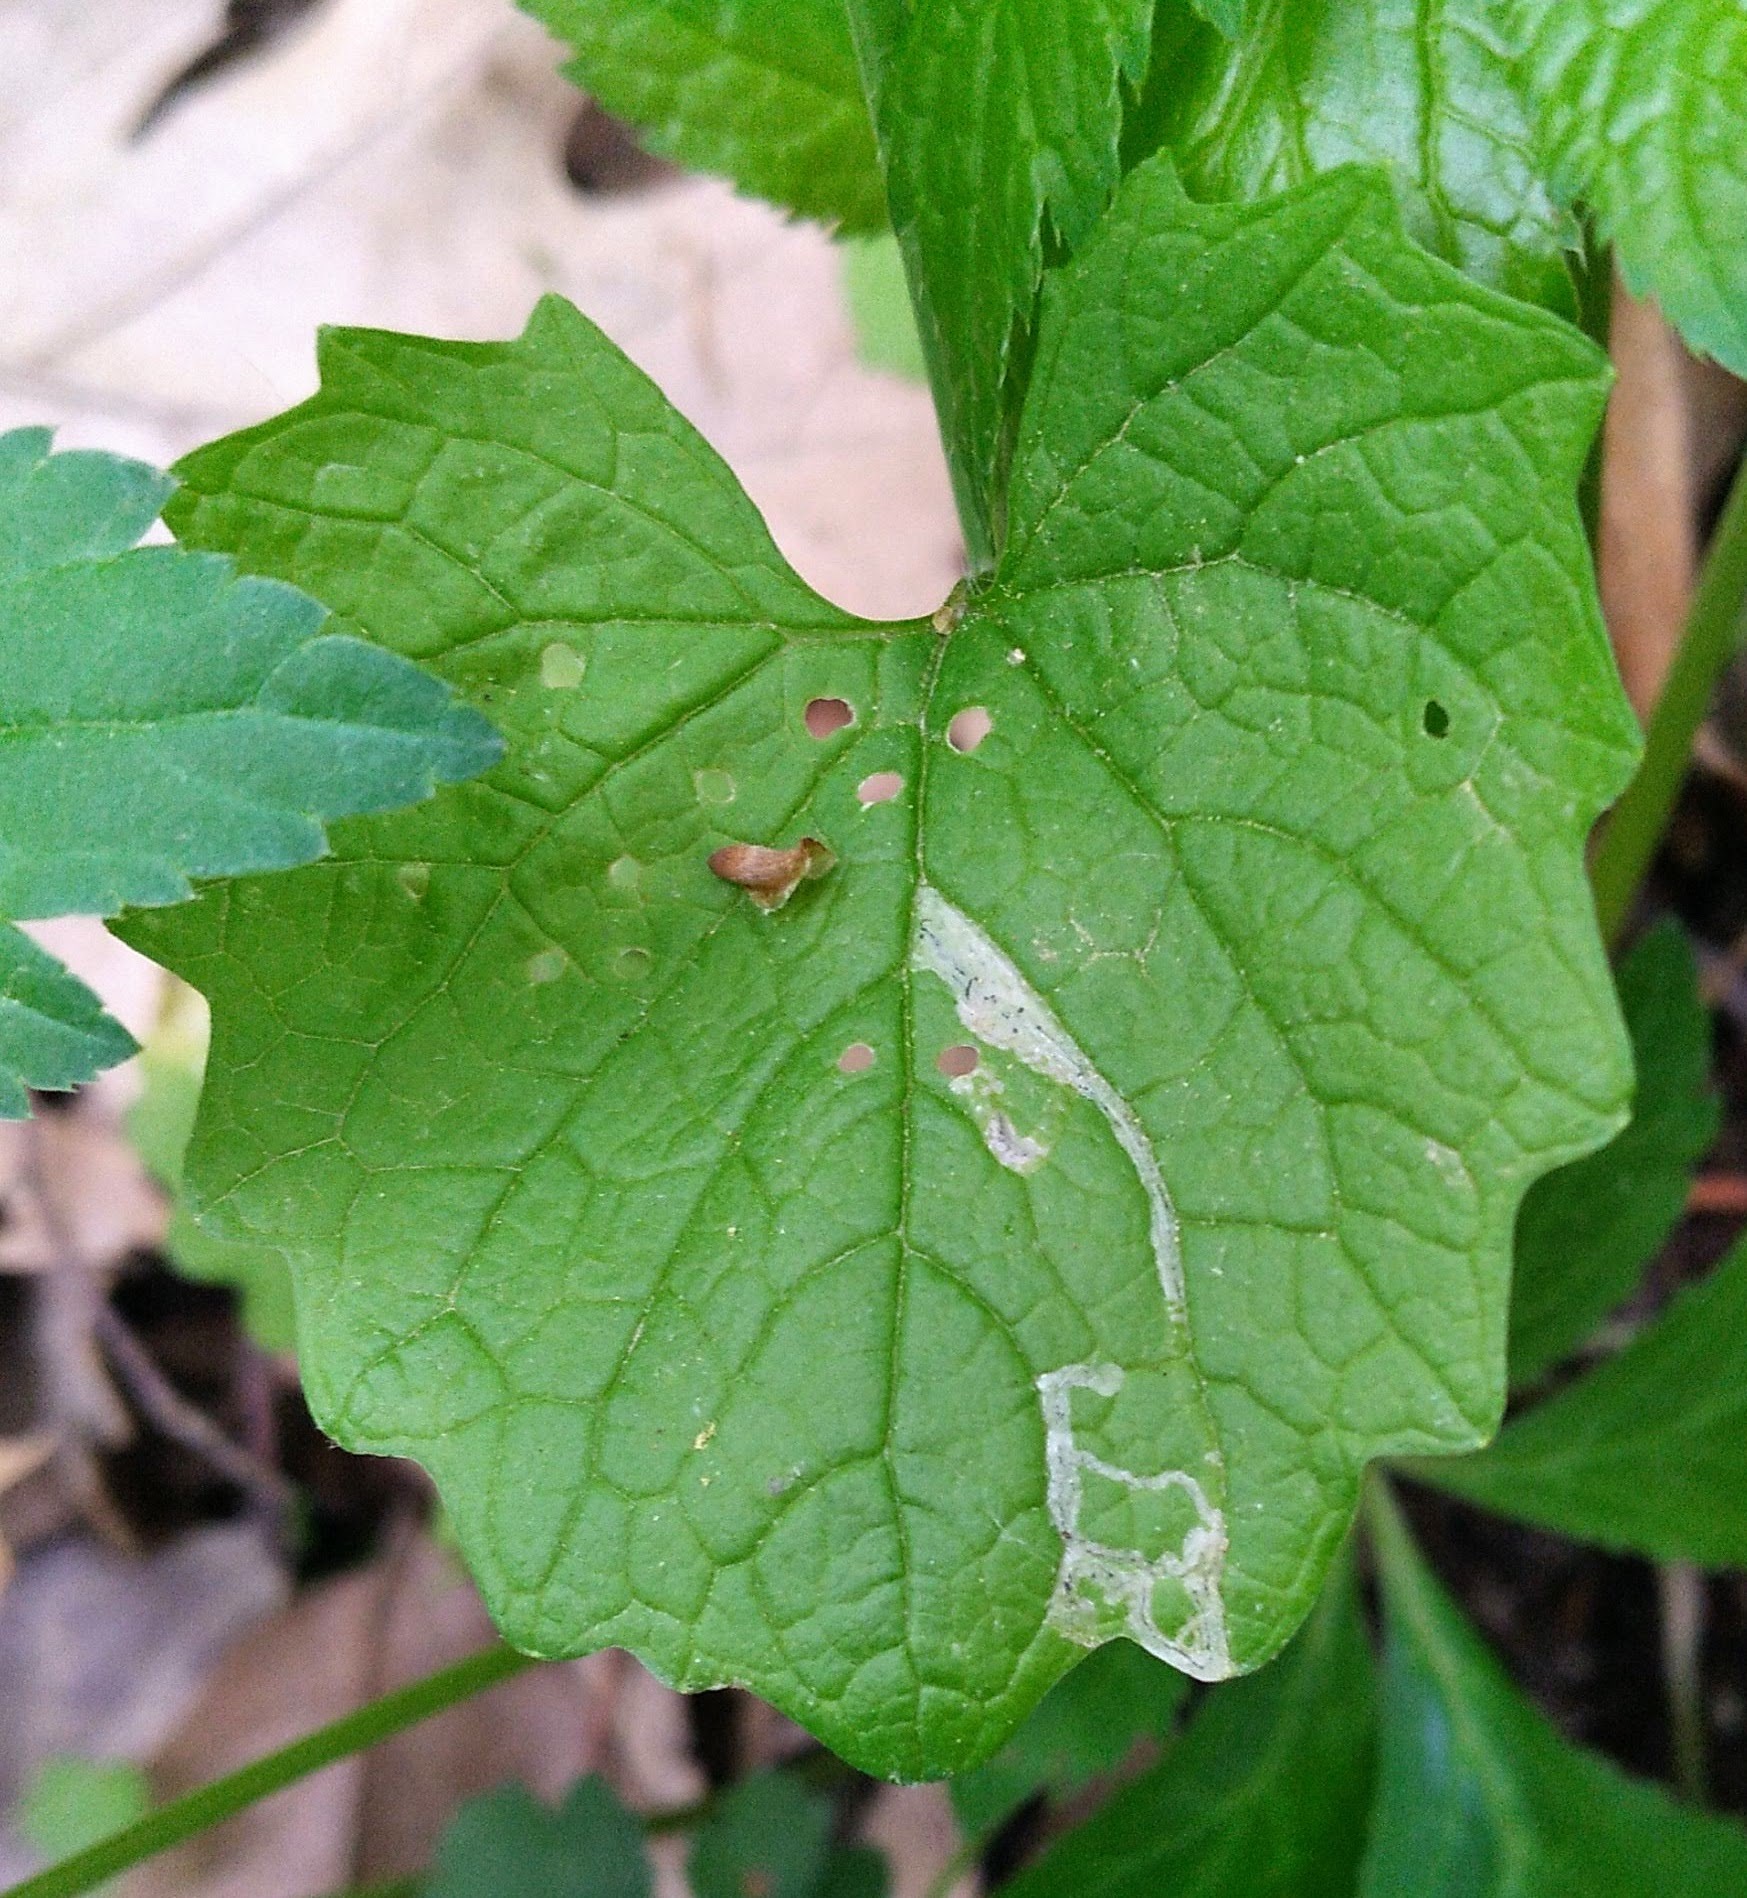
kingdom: Animalia
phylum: Arthropoda
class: Insecta
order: Diptera
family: Agromyzidae
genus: Liriomyza
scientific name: Liriomyza brassicae
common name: Serpentine leaf miner
